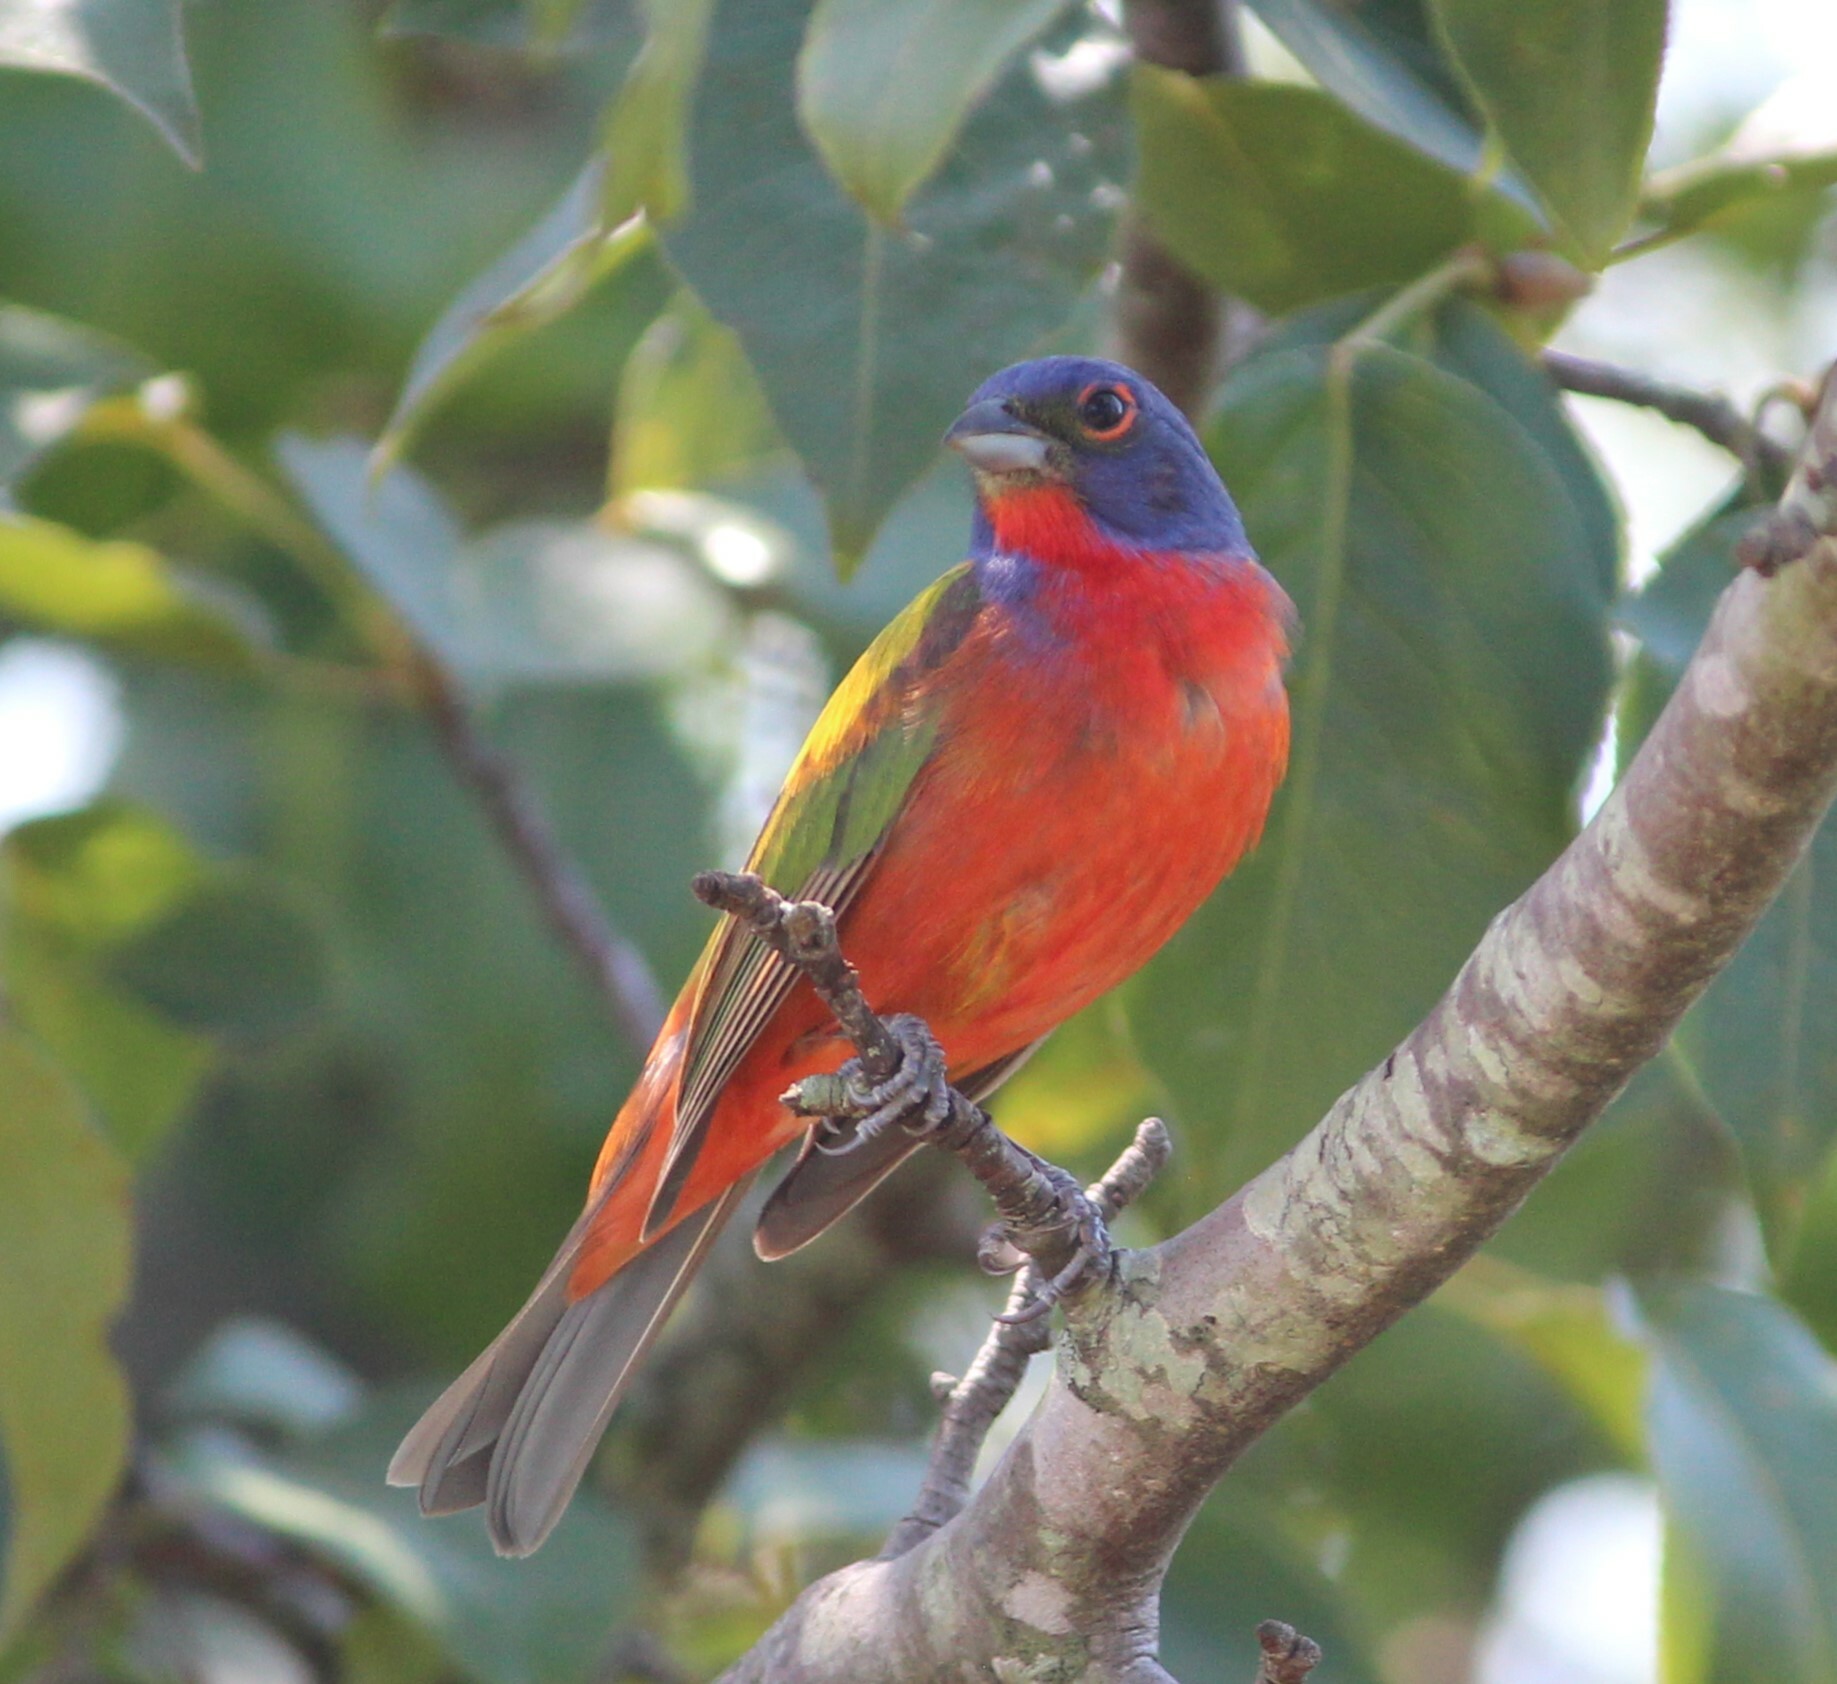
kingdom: Animalia
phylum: Chordata
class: Aves
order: Passeriformes
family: Cardinalidae
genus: Passerina
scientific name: Passerina ciris
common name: Painted bunting
